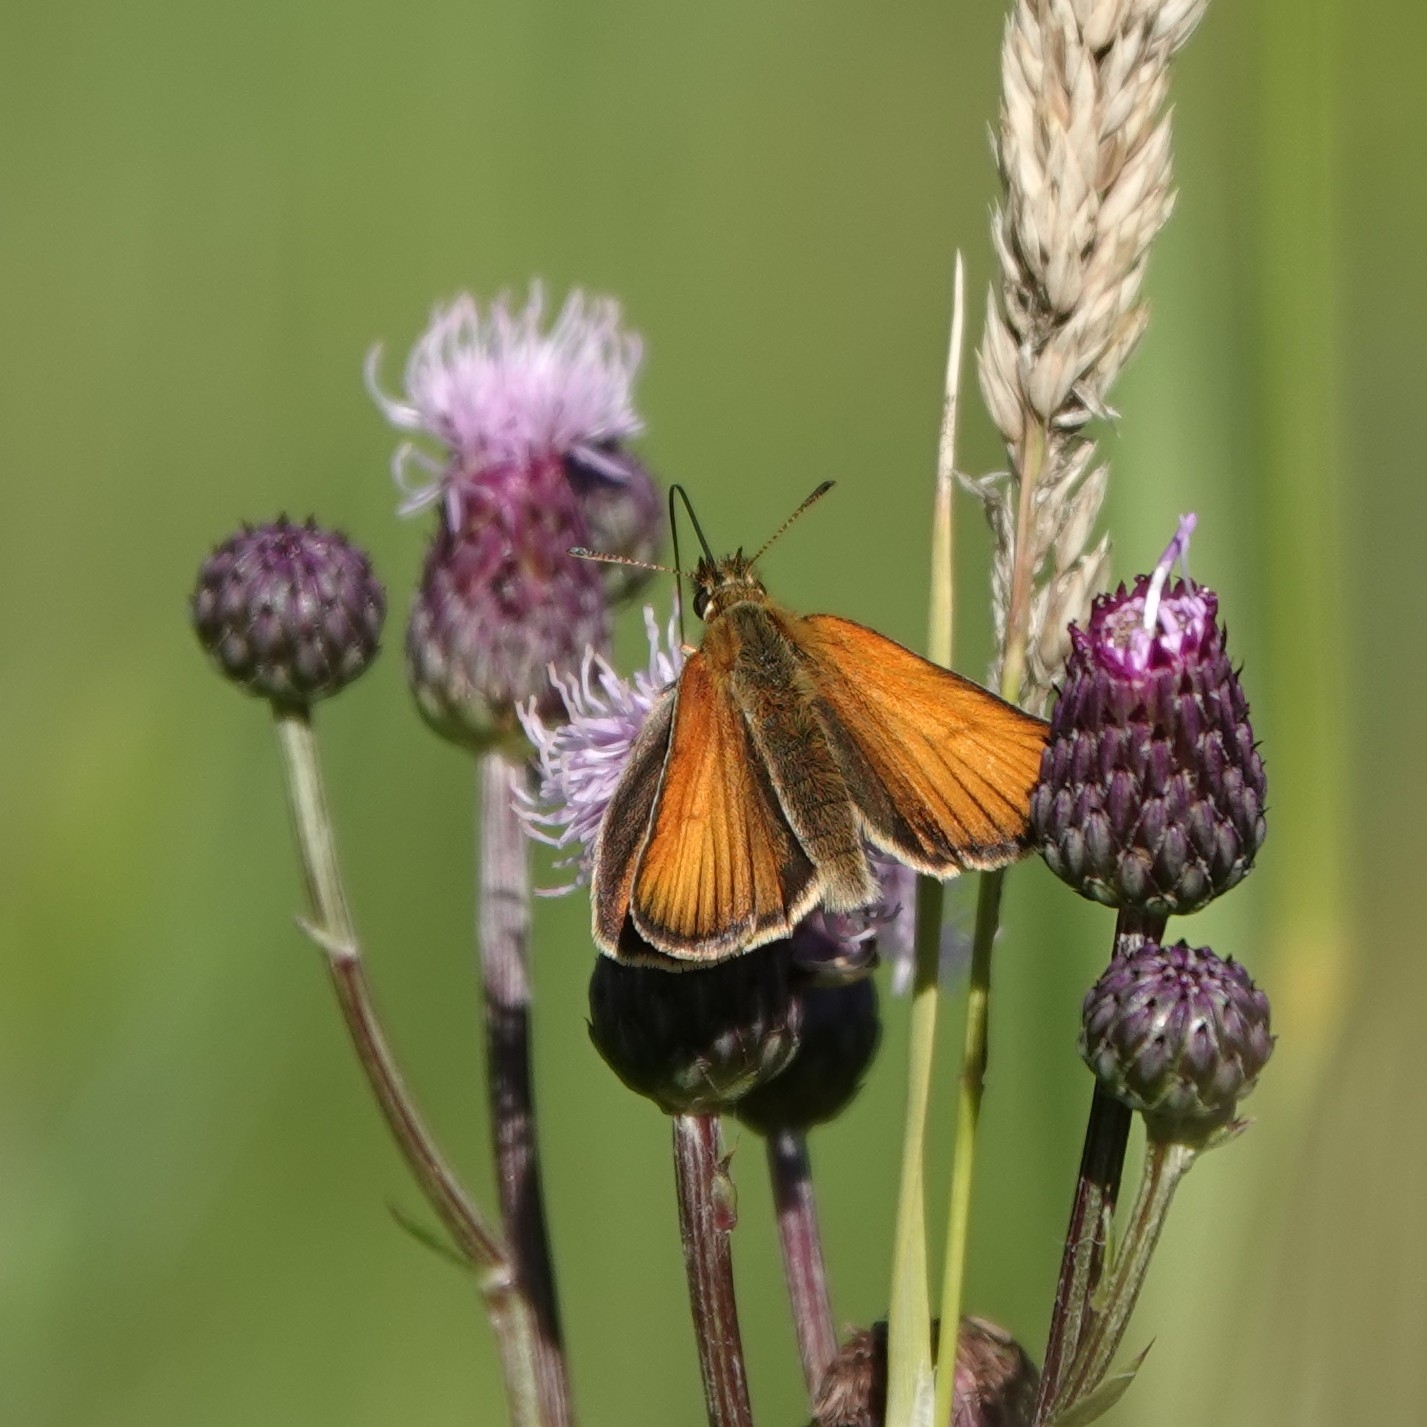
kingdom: Animalia
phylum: Arthropoda
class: Insecta
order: Lepidoptera
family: Hesperiidae
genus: Thymelicus
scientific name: Thymelicus lineola
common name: Essex skipper
